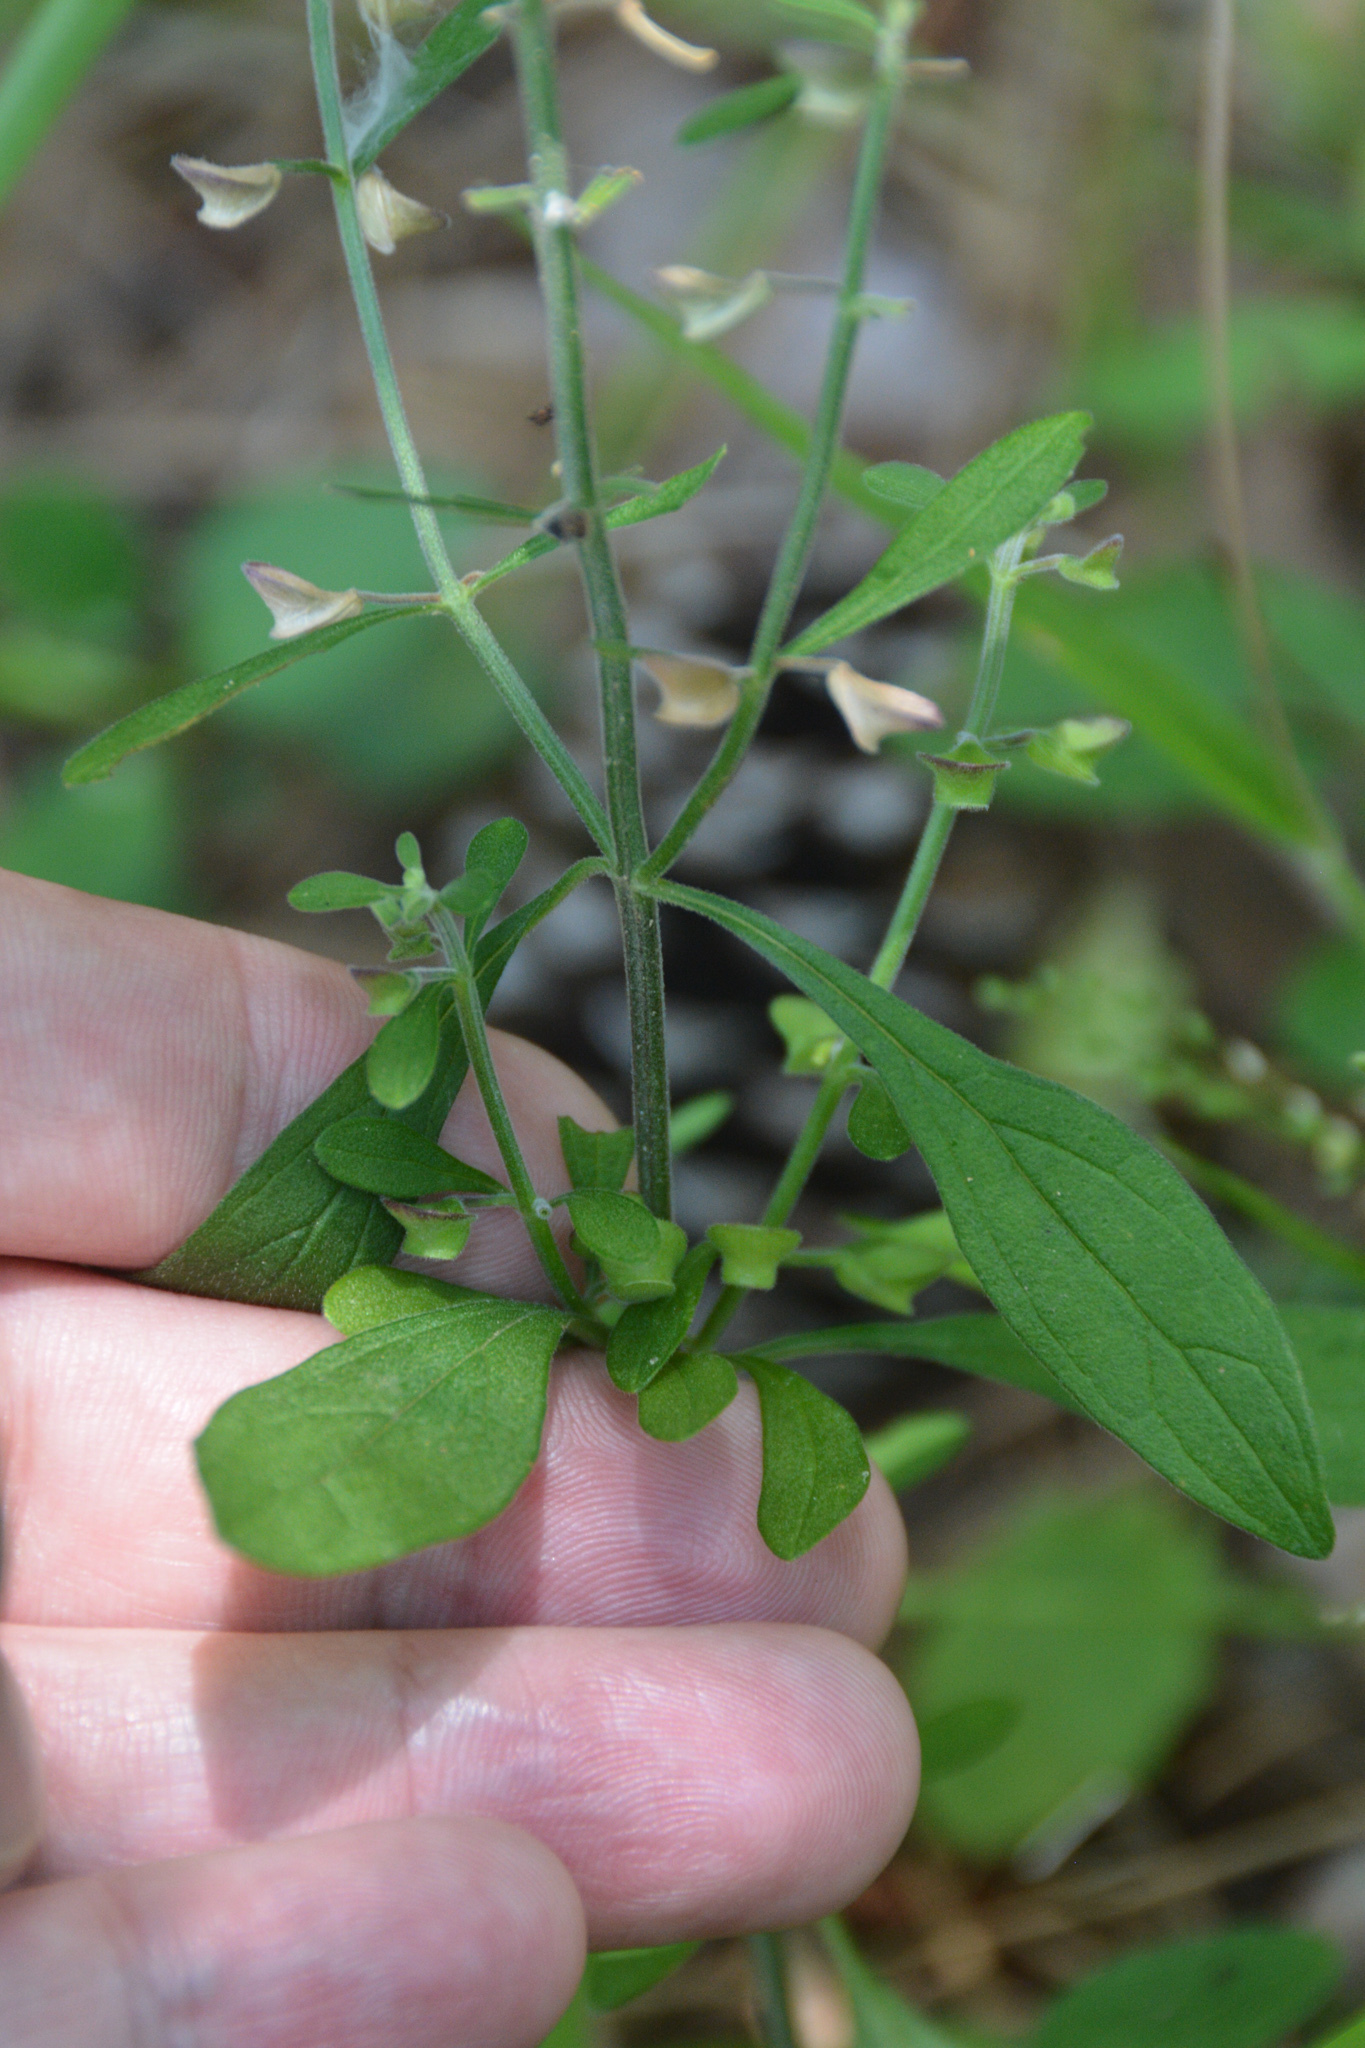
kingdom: Plantae
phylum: Tracheophyta
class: Magnoliopsida
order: Lamiales
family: Lamiaceae
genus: Scutellaria
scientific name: Scutellaria integrifolia
